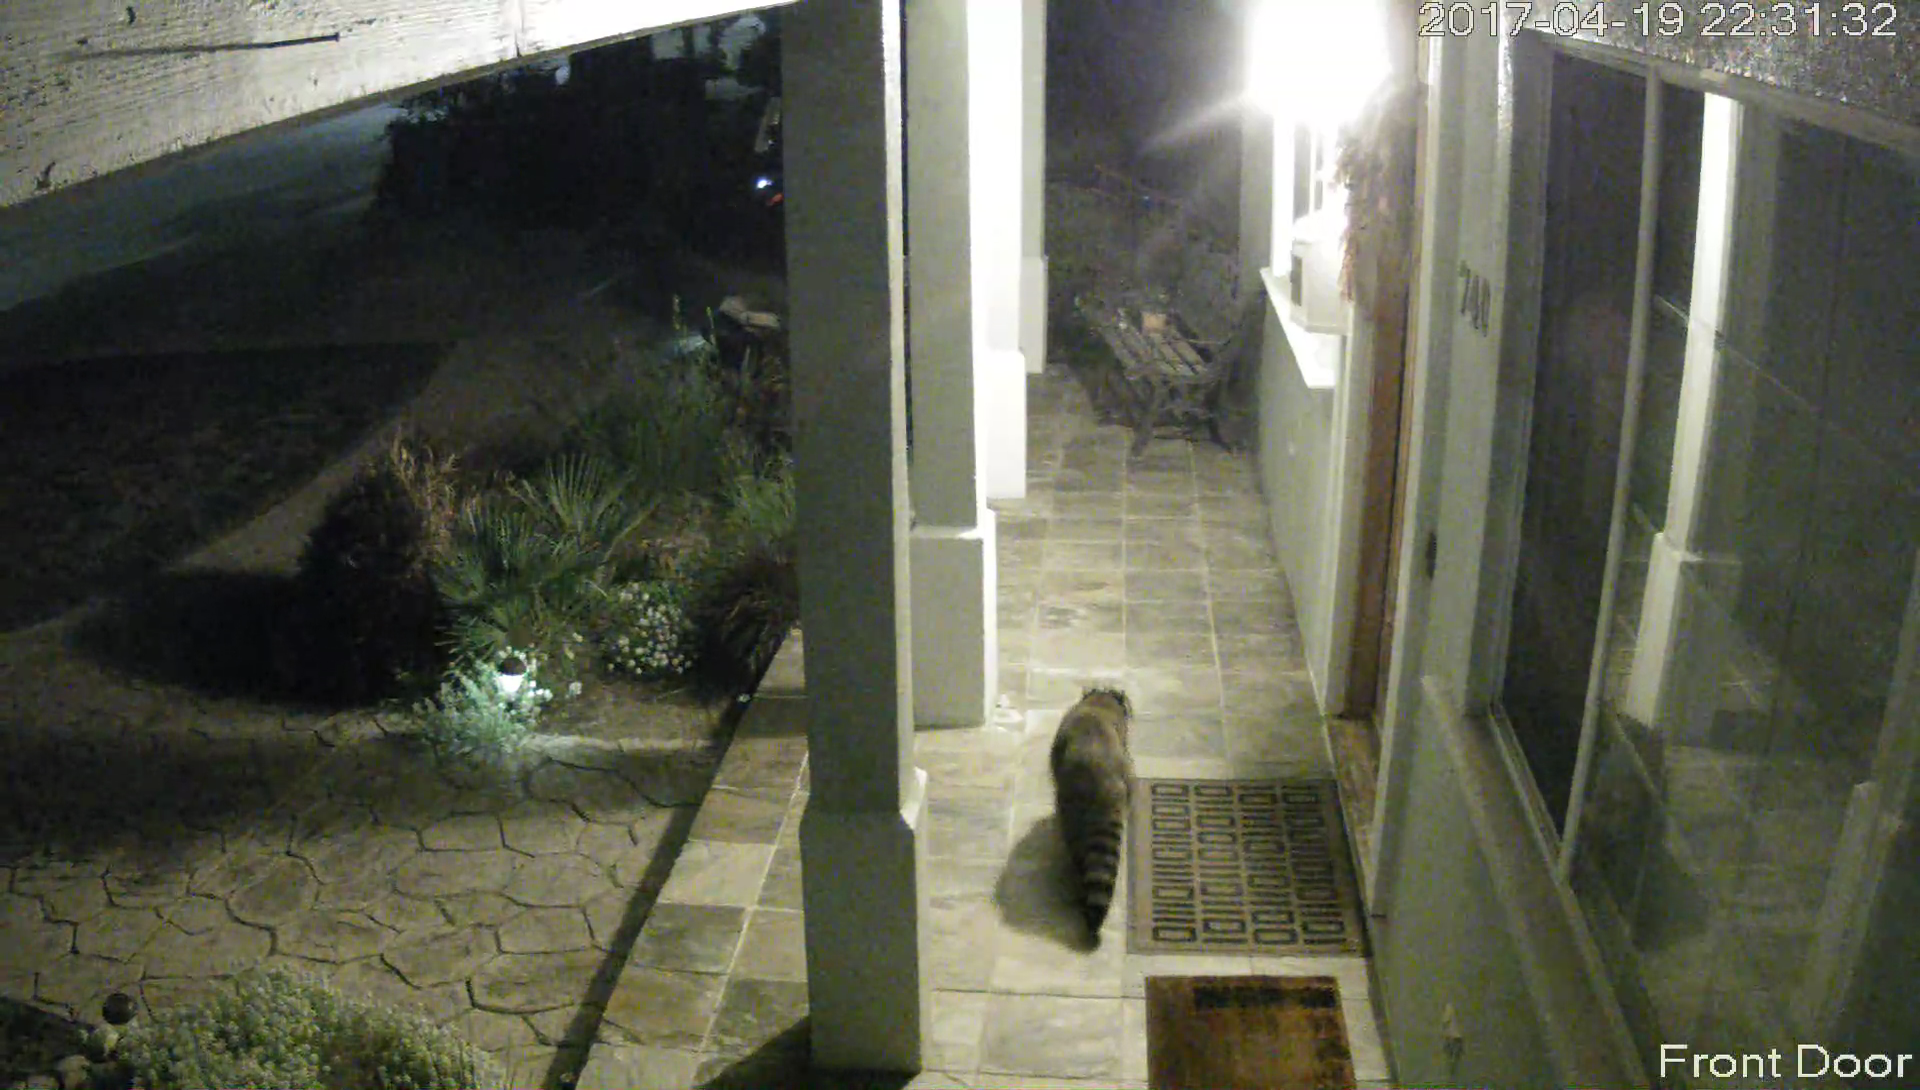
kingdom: Animalia
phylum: Chordata
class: Mammalia
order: Carnivora
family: Procyonidae
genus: Procyon
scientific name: Procyon lotor
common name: Raccoon
